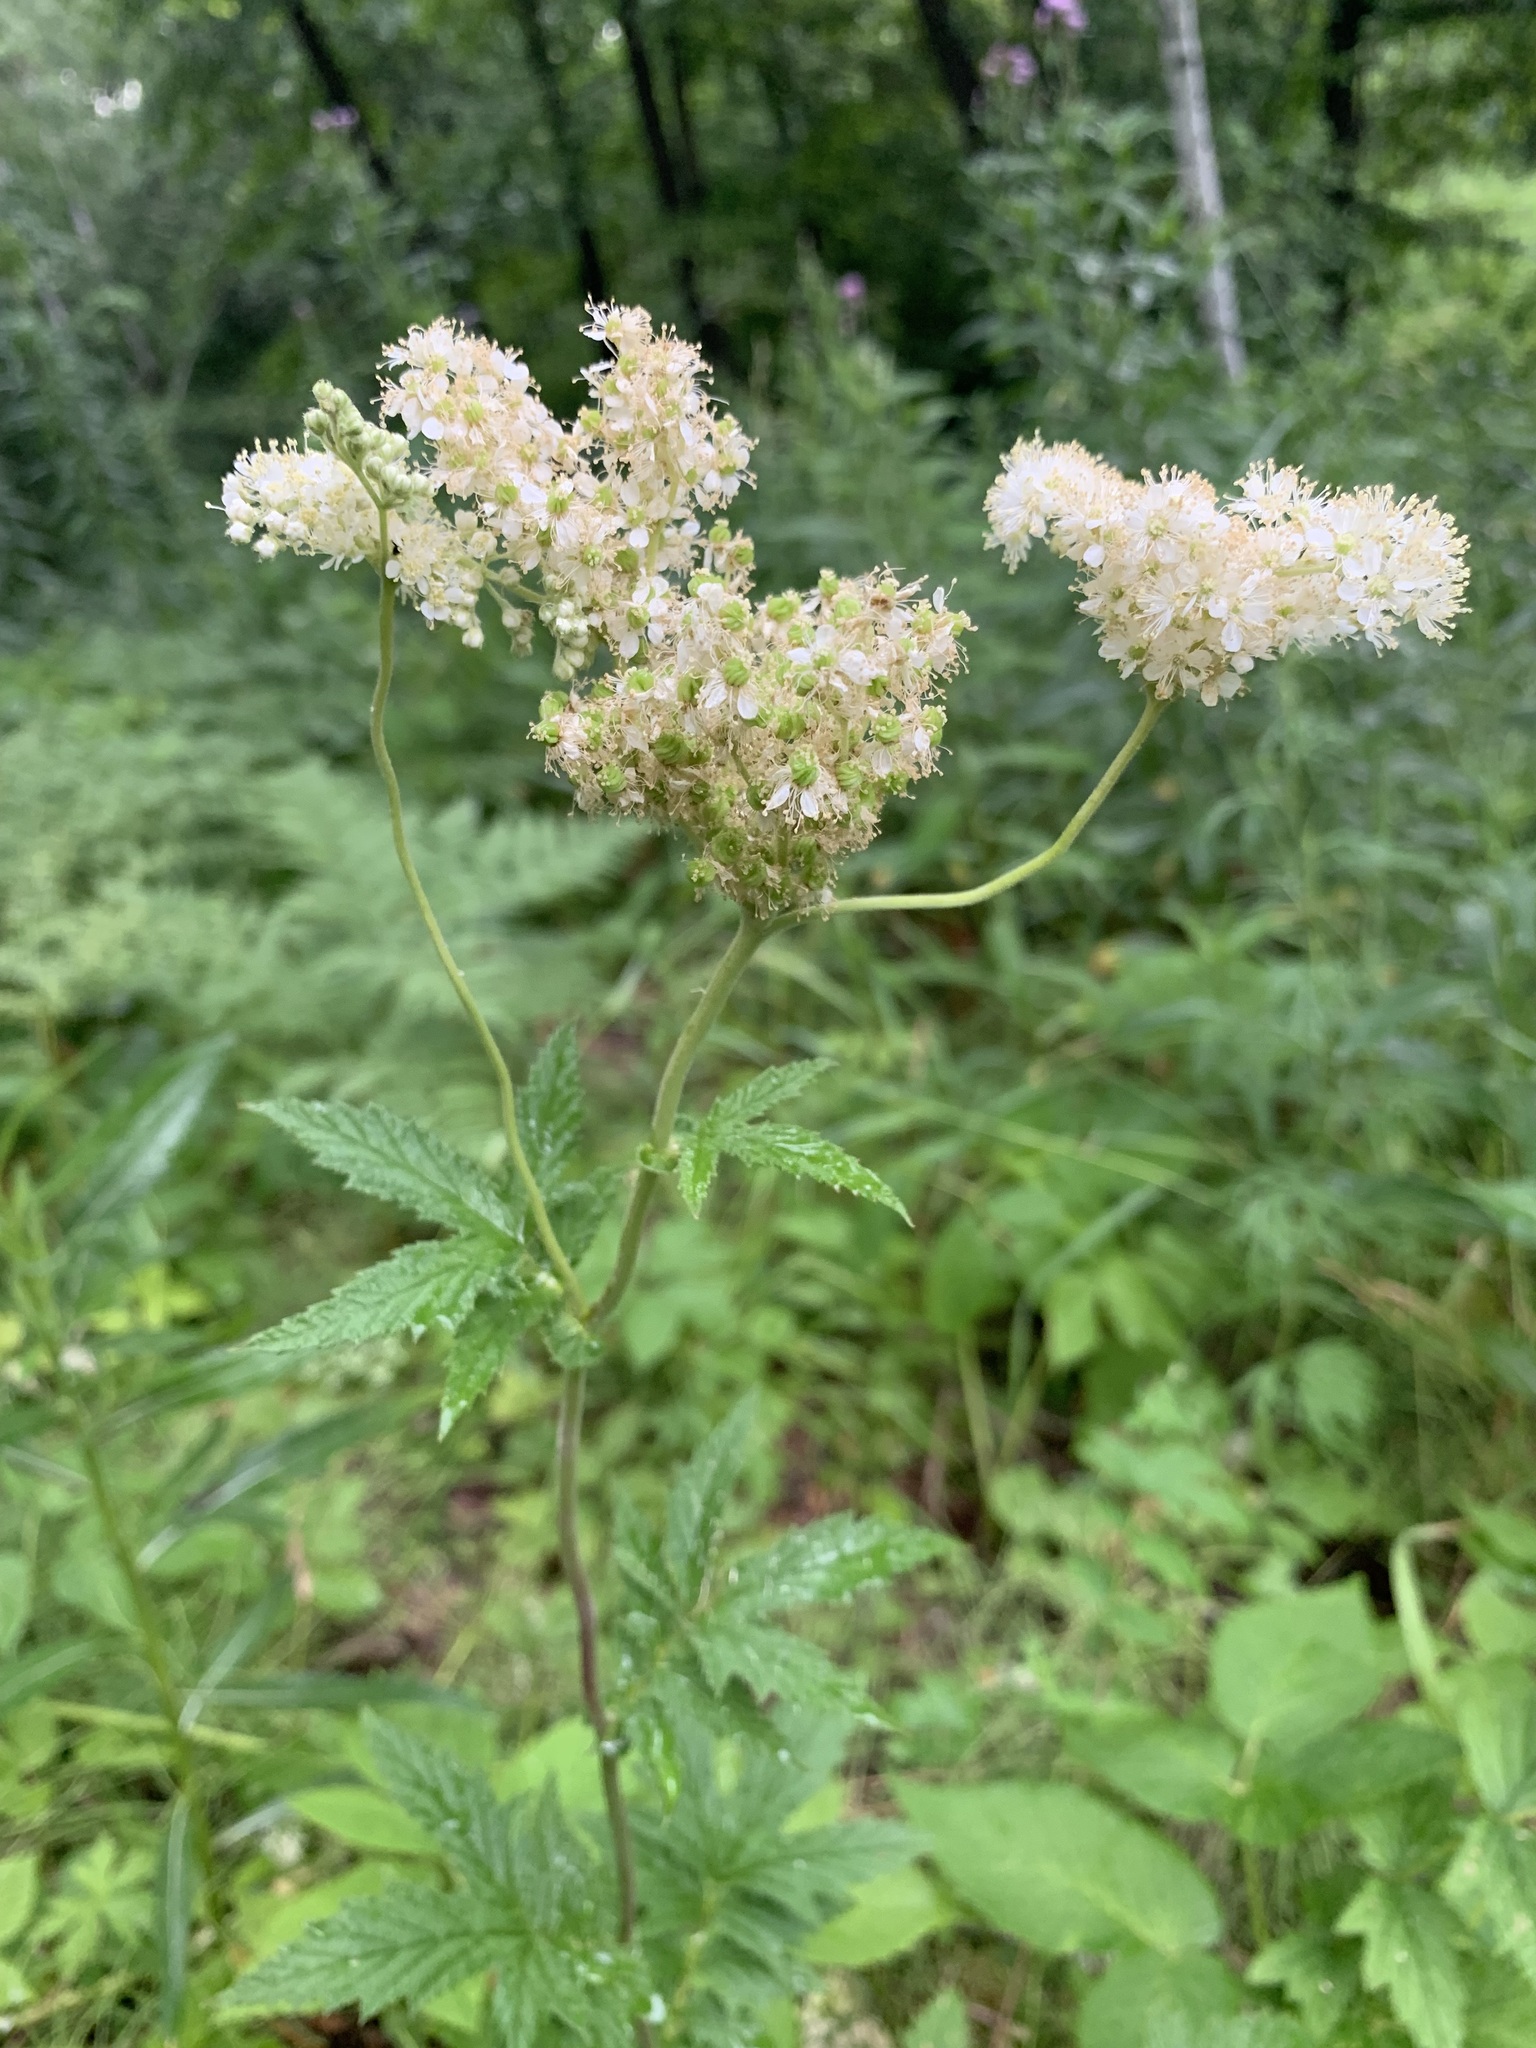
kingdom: Plantae
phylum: Tracheophyta
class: Magnoliopsida
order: Rosales
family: Rosaceae
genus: Filipendula
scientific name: Filipendula ulmaria
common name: Meadowsweet
